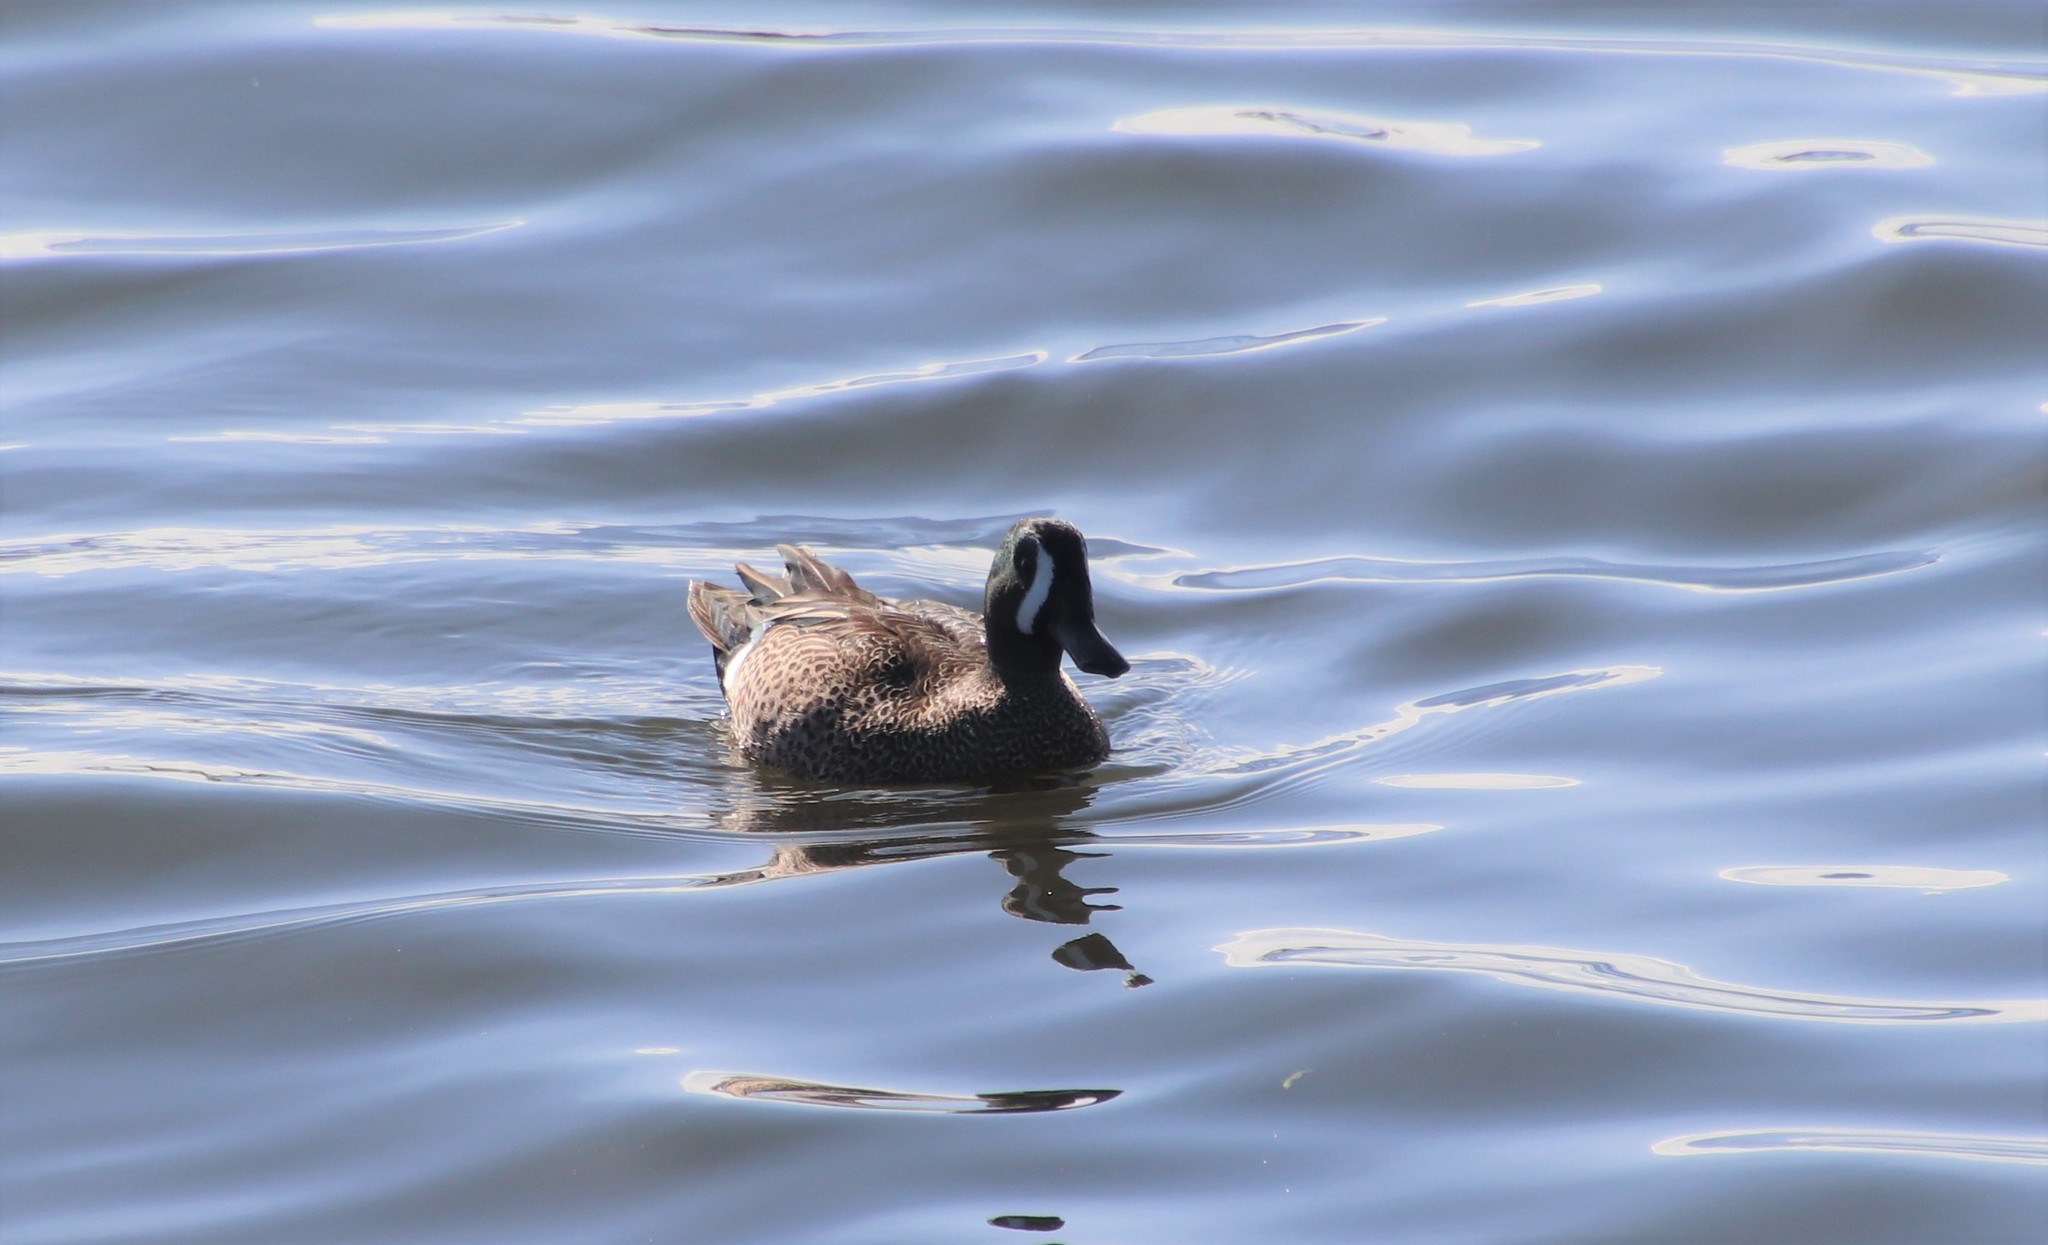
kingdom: Animalia
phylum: Chordata
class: Aves
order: Anseriformes
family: Anatidae
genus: Spatula
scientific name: Spatula discors
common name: Blue-winged teal
